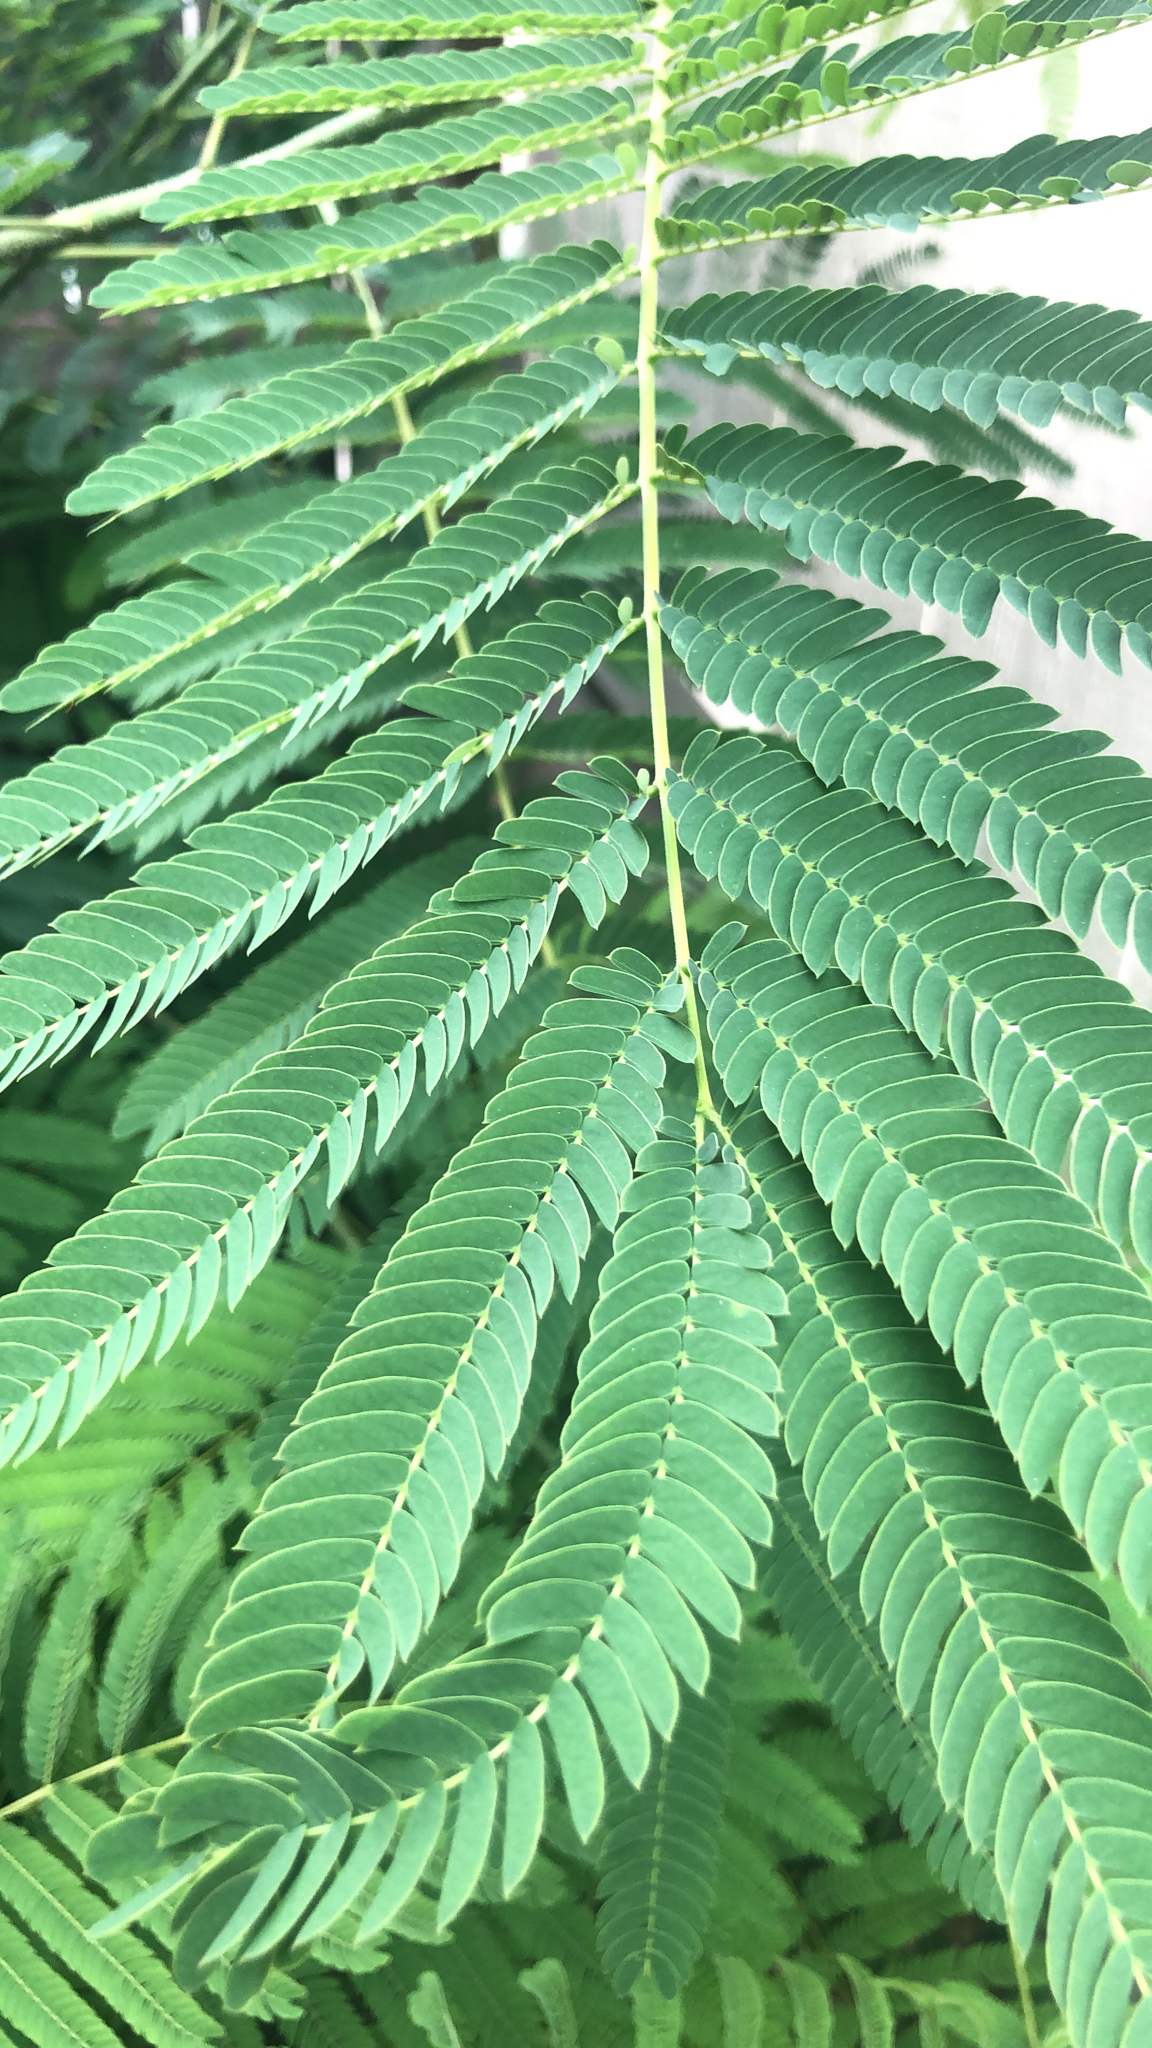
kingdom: Plantae
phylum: Tracheophyta
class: Magnoliopsida
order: Fabales
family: Fabaceae
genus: Albizia
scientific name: Albizia julibrissin
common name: Silktree
